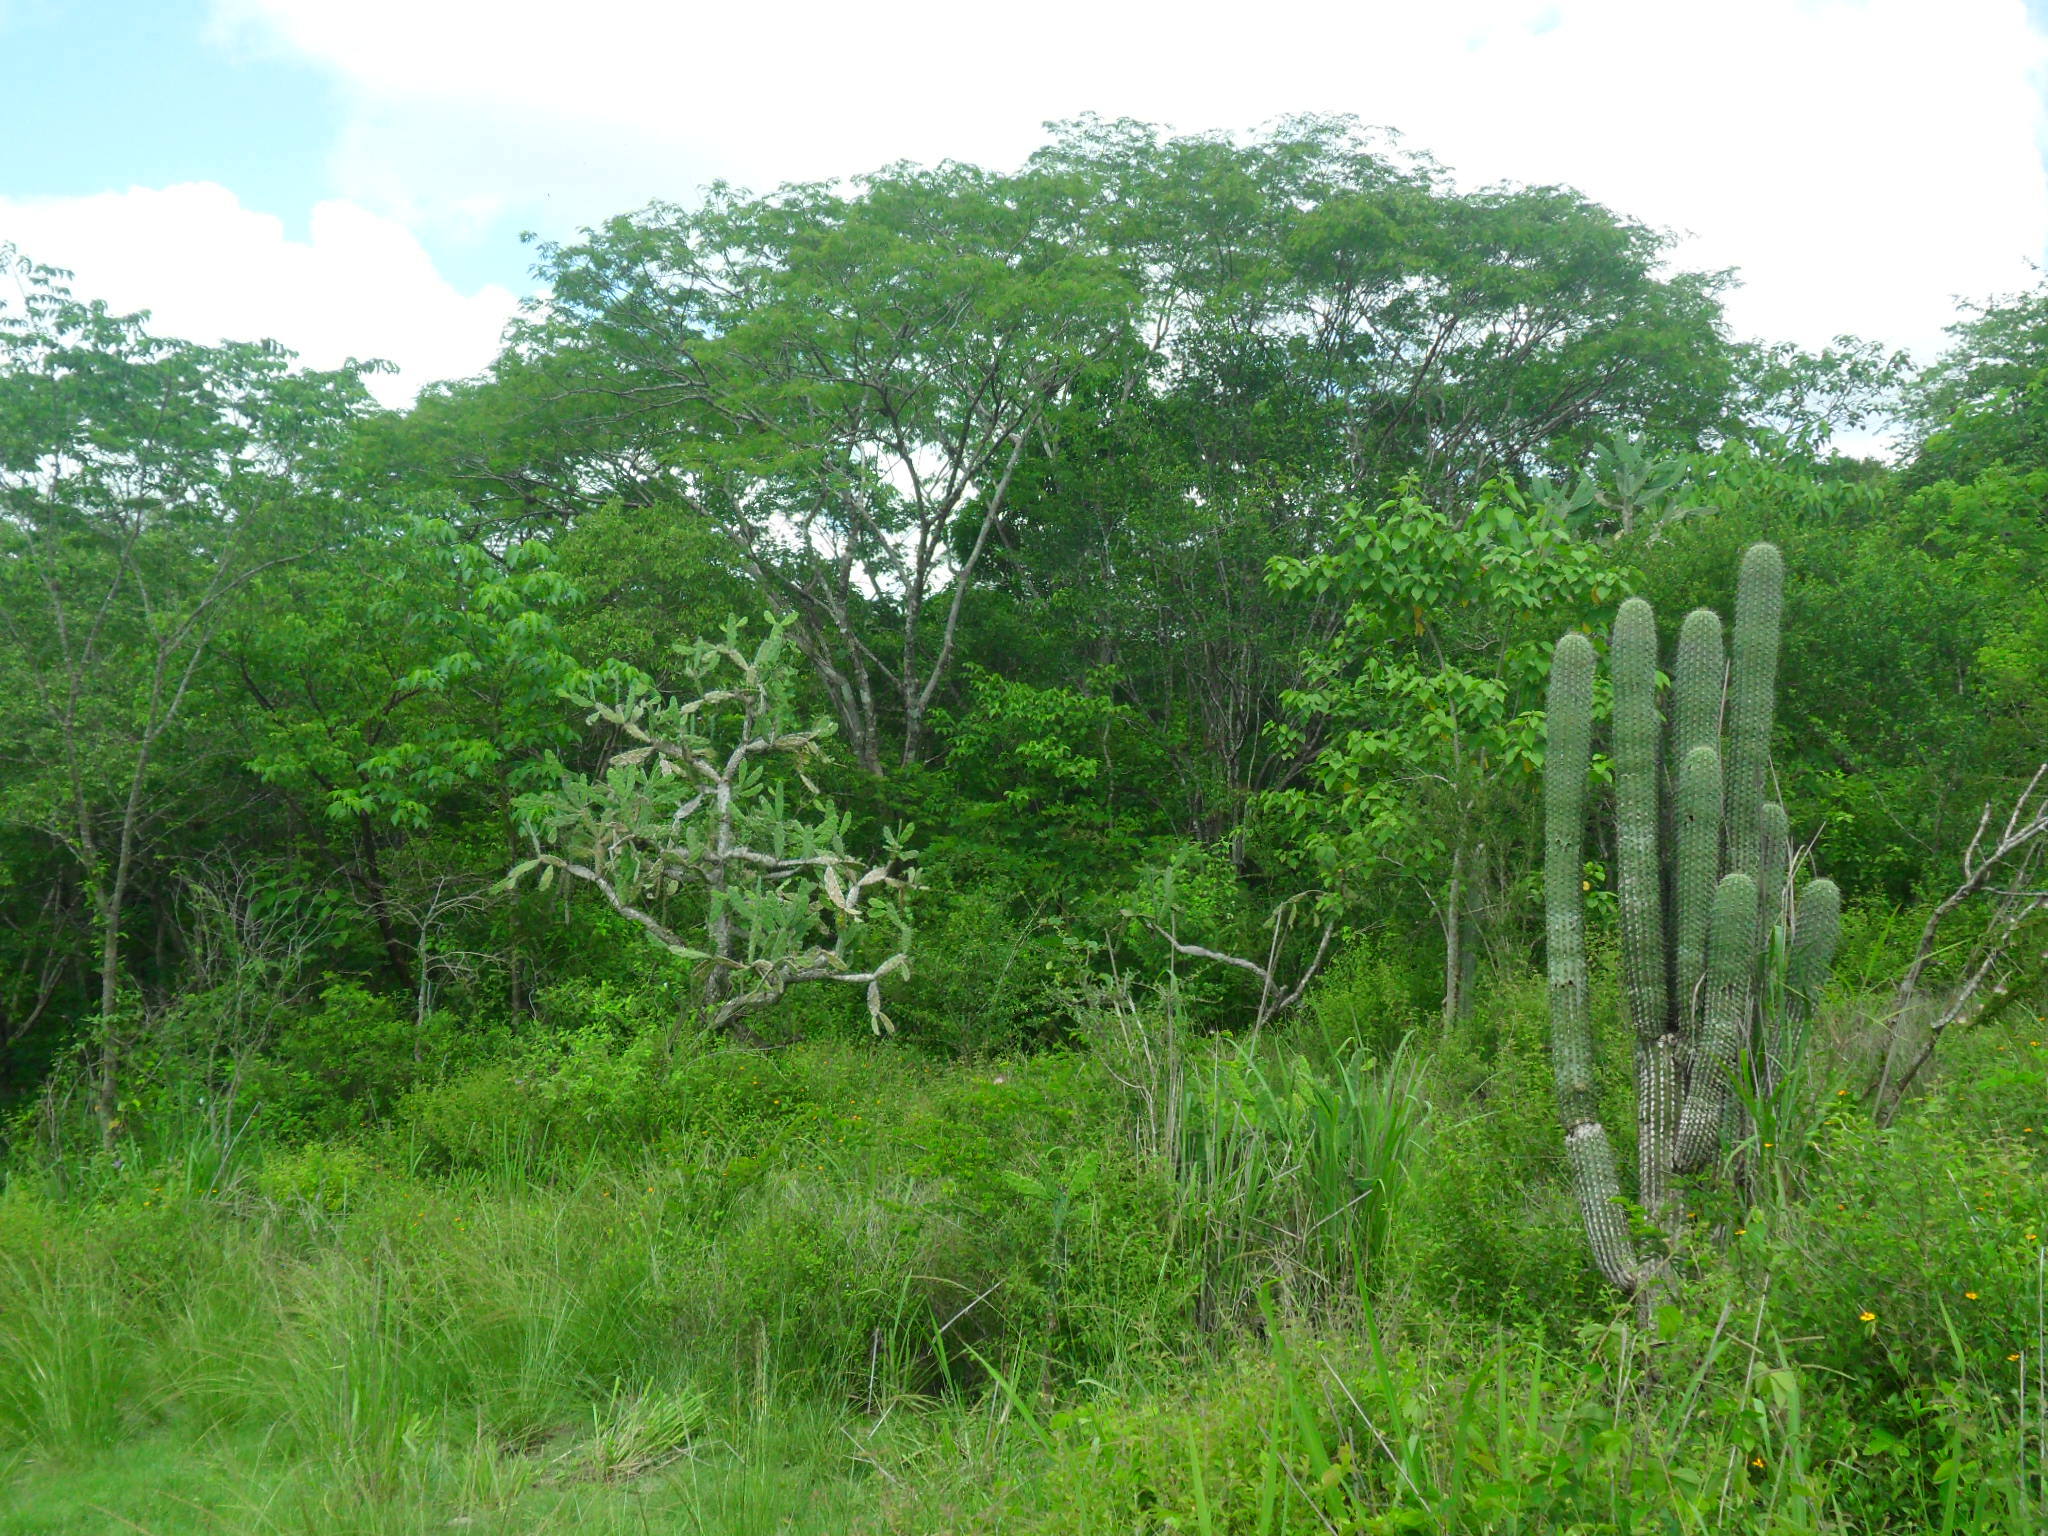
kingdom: Plantae
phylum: Tracheophyta
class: Magnoliopsida
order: Caryophyllales
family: Cactaceae
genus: Cephalocereus
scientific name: Cephalocereus scoparius
